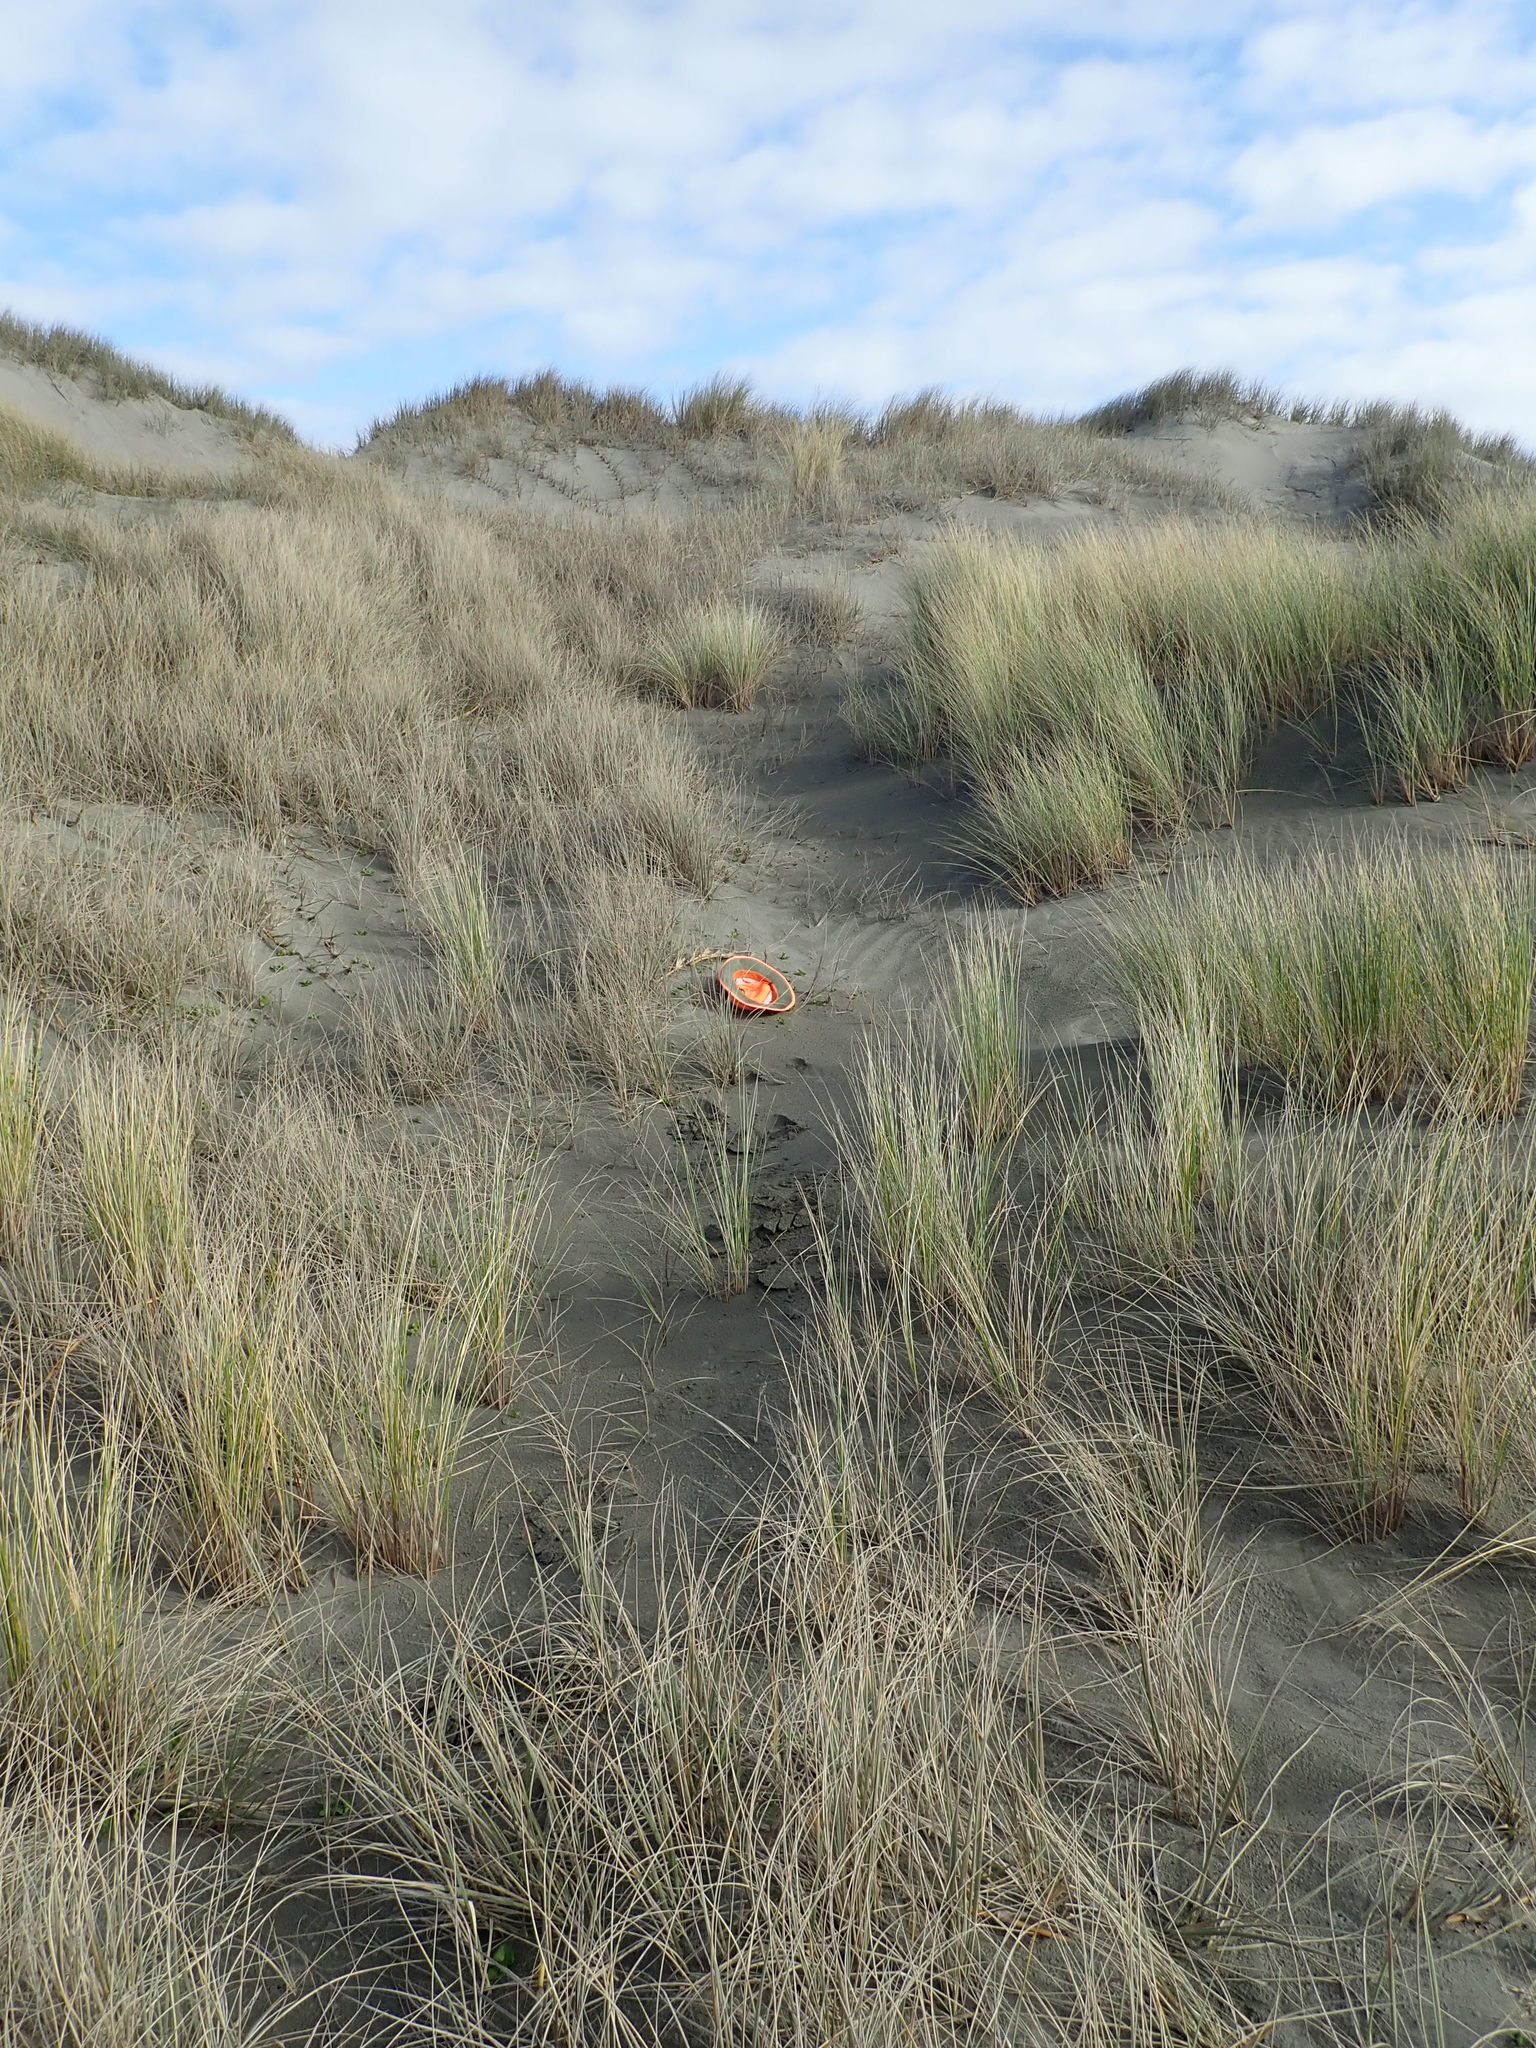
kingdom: Plantae
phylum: Tracheophyta
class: Magnoliopsida
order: Solanales
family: Convolvulaceae
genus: Calystegia
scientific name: Calystegia soldanella
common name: Sea bindweed
